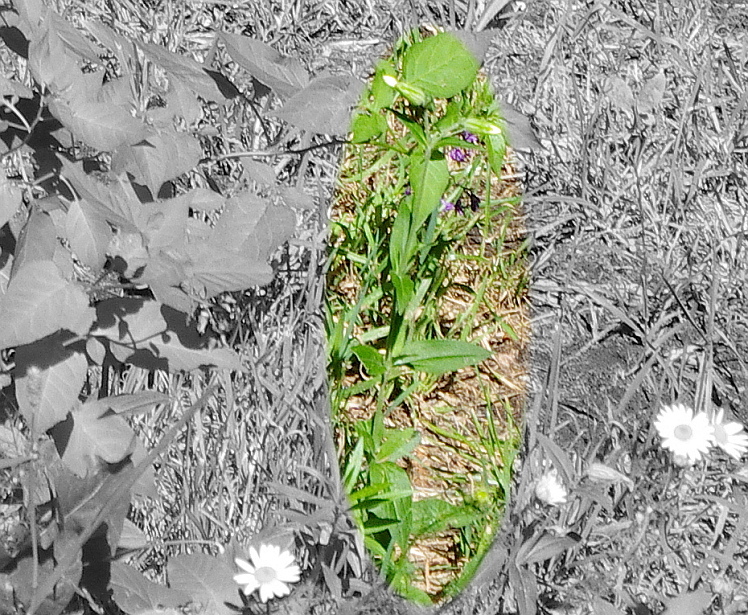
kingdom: Plantae
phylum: Tracheophyta
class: Magnoliopsida
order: Caryophyllales
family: Caryophyllaceae
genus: Silene
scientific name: Silene latifolia
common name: White campion
